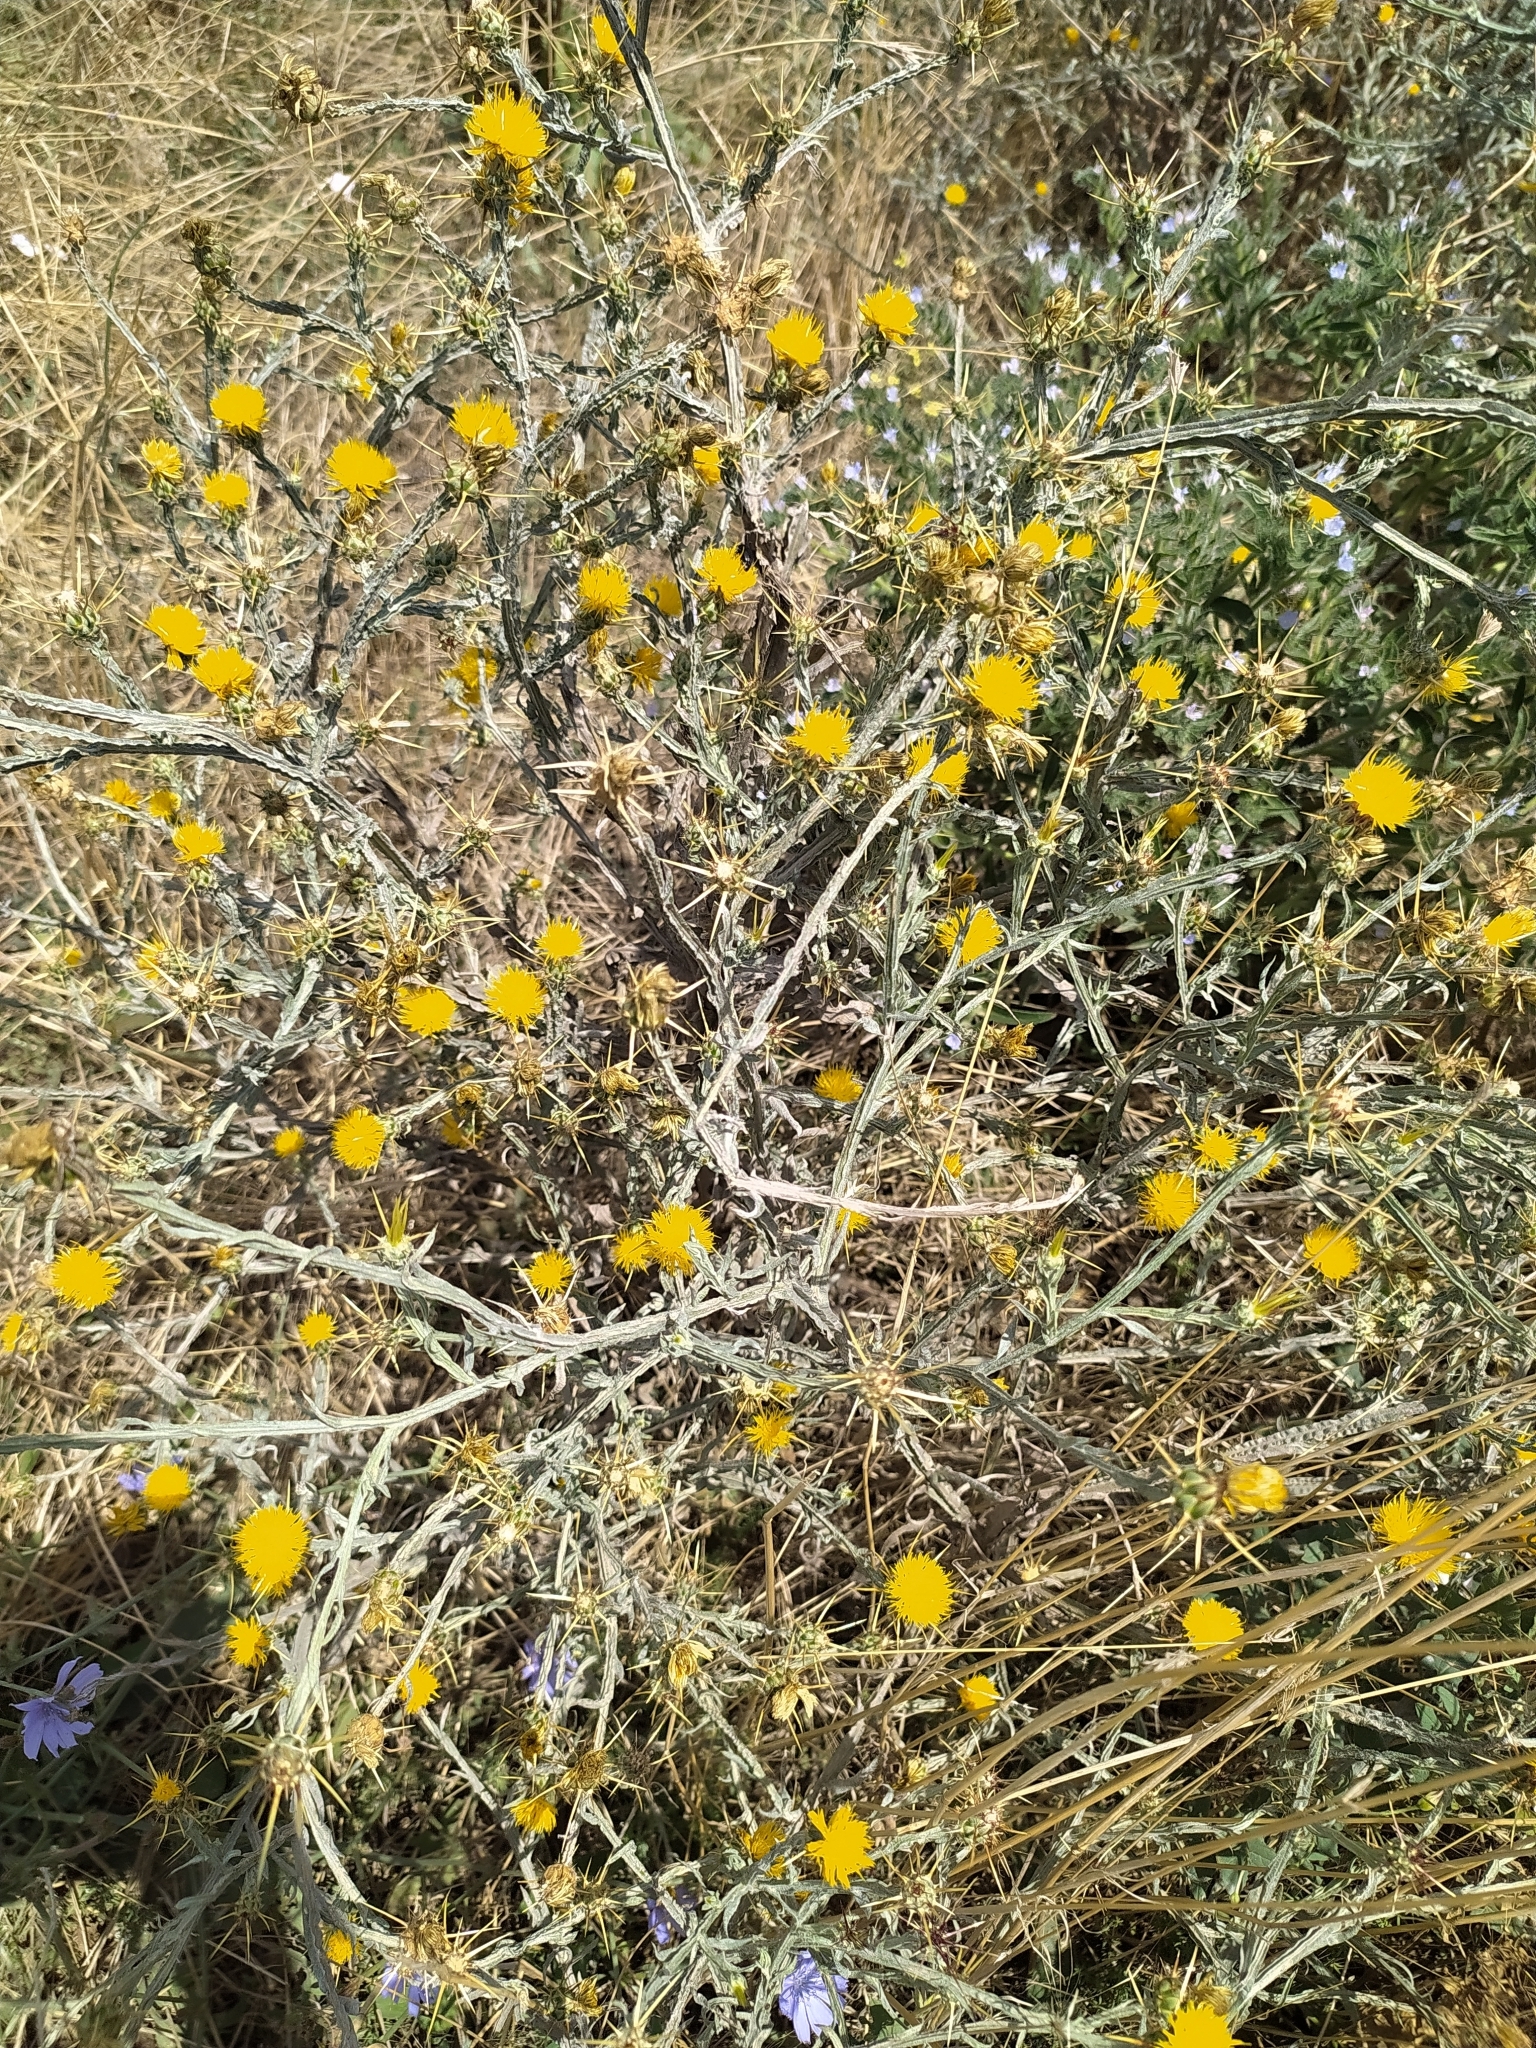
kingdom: Plantae
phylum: Tracheophyta
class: Magnoliopsida
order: Asterales
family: Asteraceae
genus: Centaurea
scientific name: Centaurea solstitialis
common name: Yellow star-thistle
